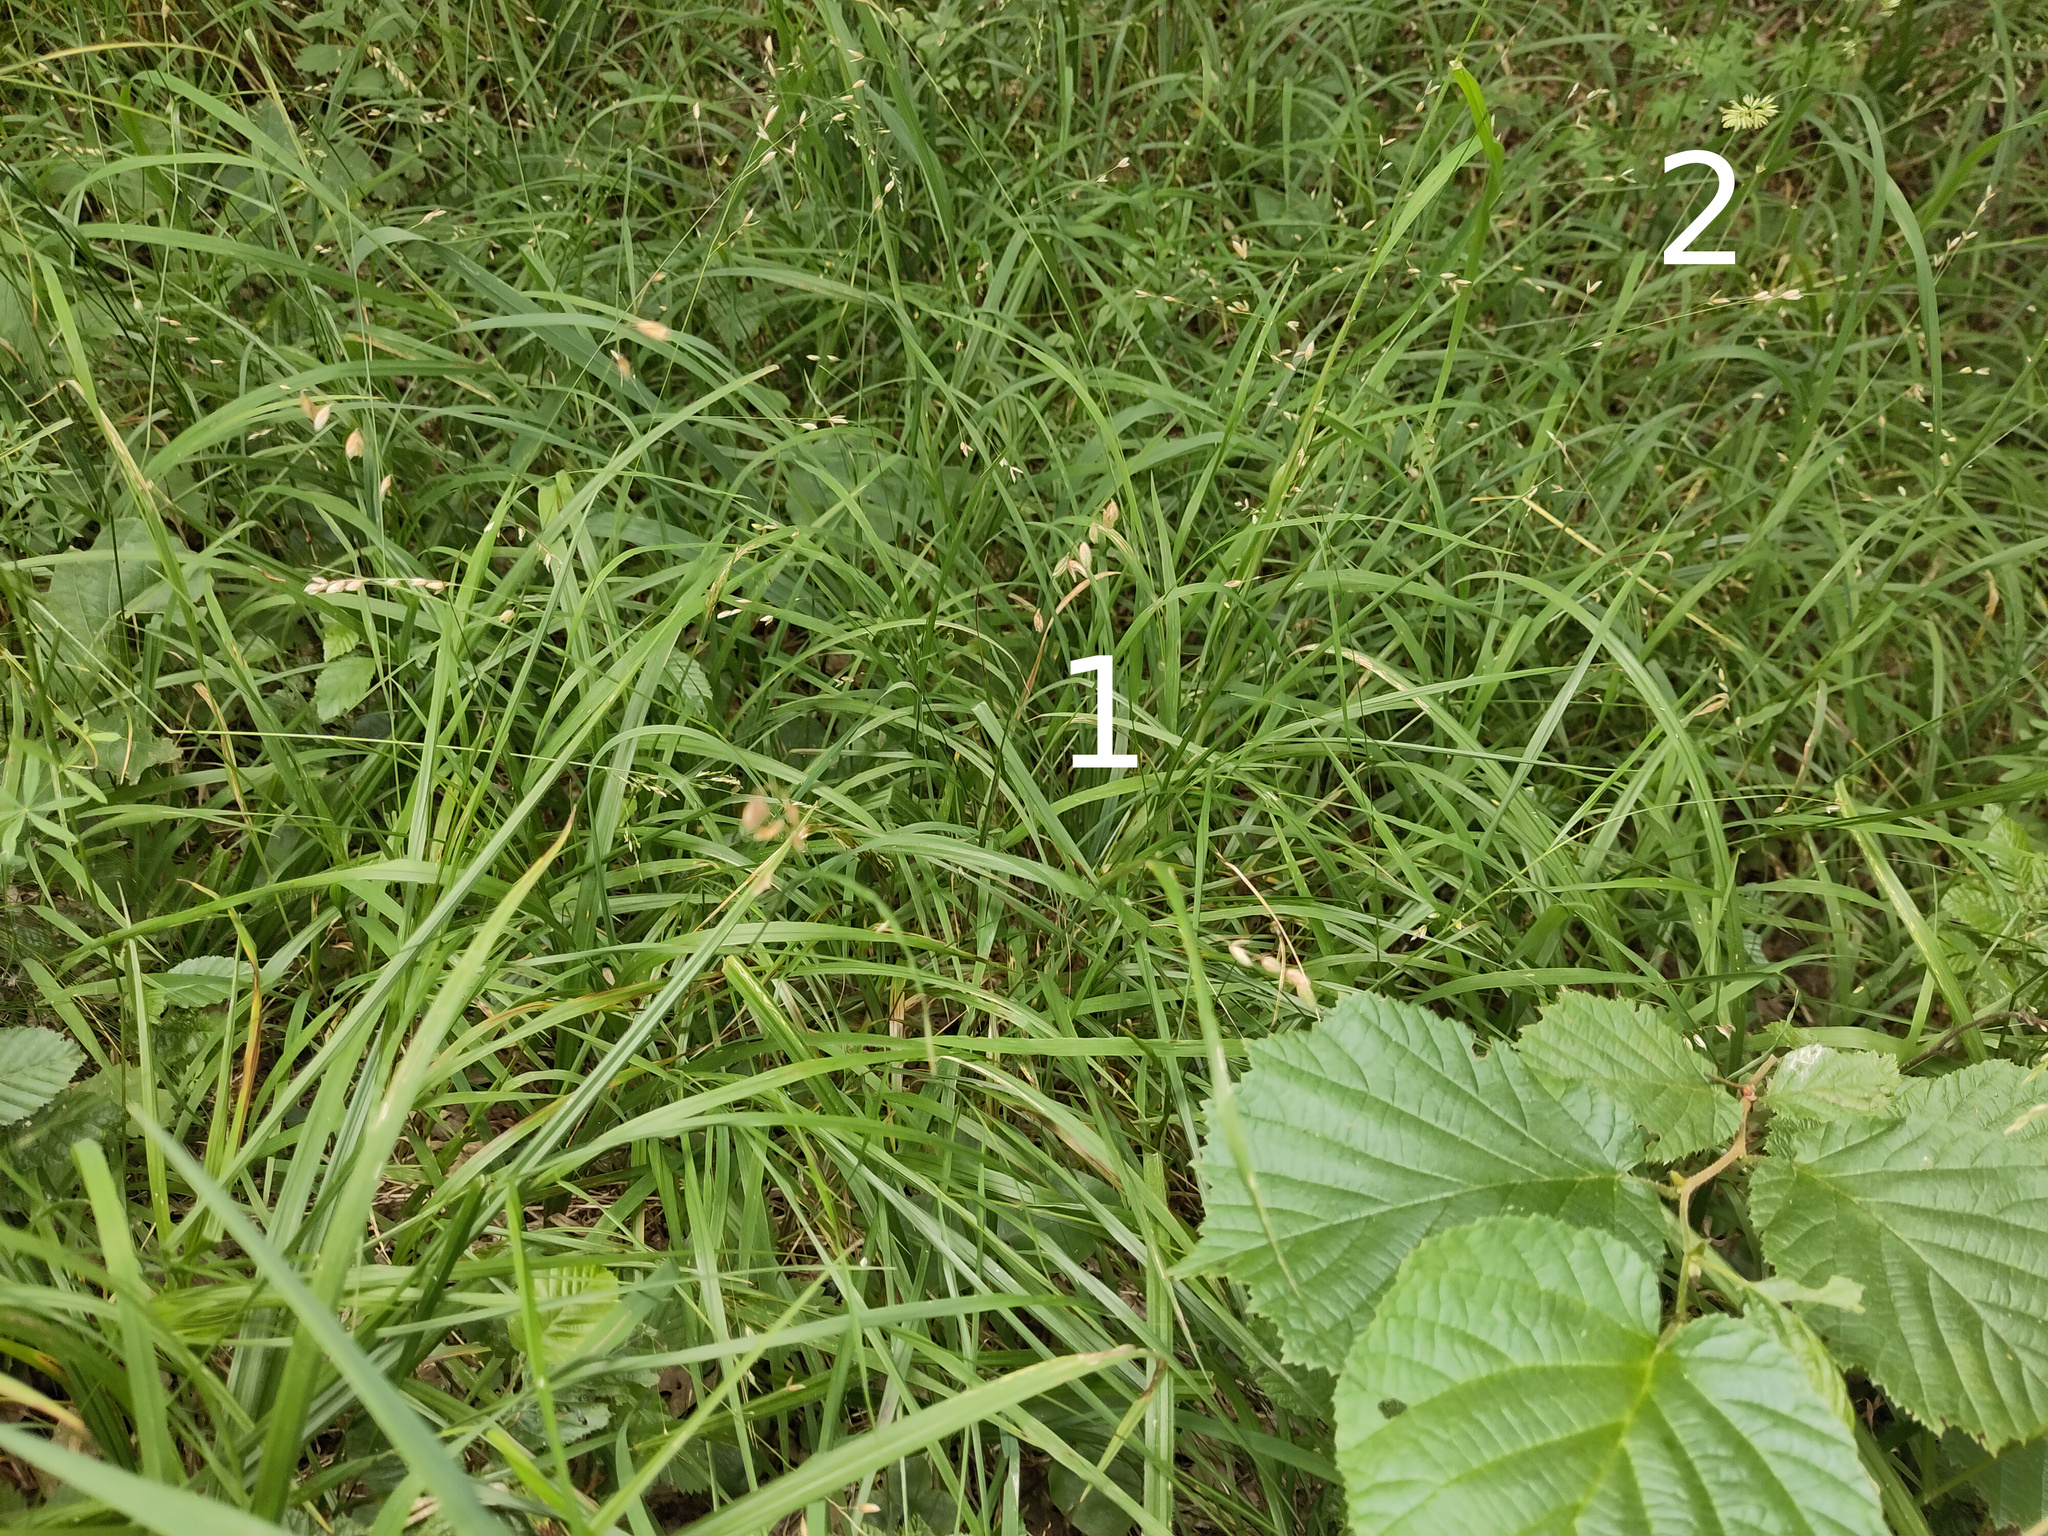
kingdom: Plantae
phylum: Tracheophyta
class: Liliopsida
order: Poales
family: Poaceae
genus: Melica
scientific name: Melica uniflora
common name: Wood melick
